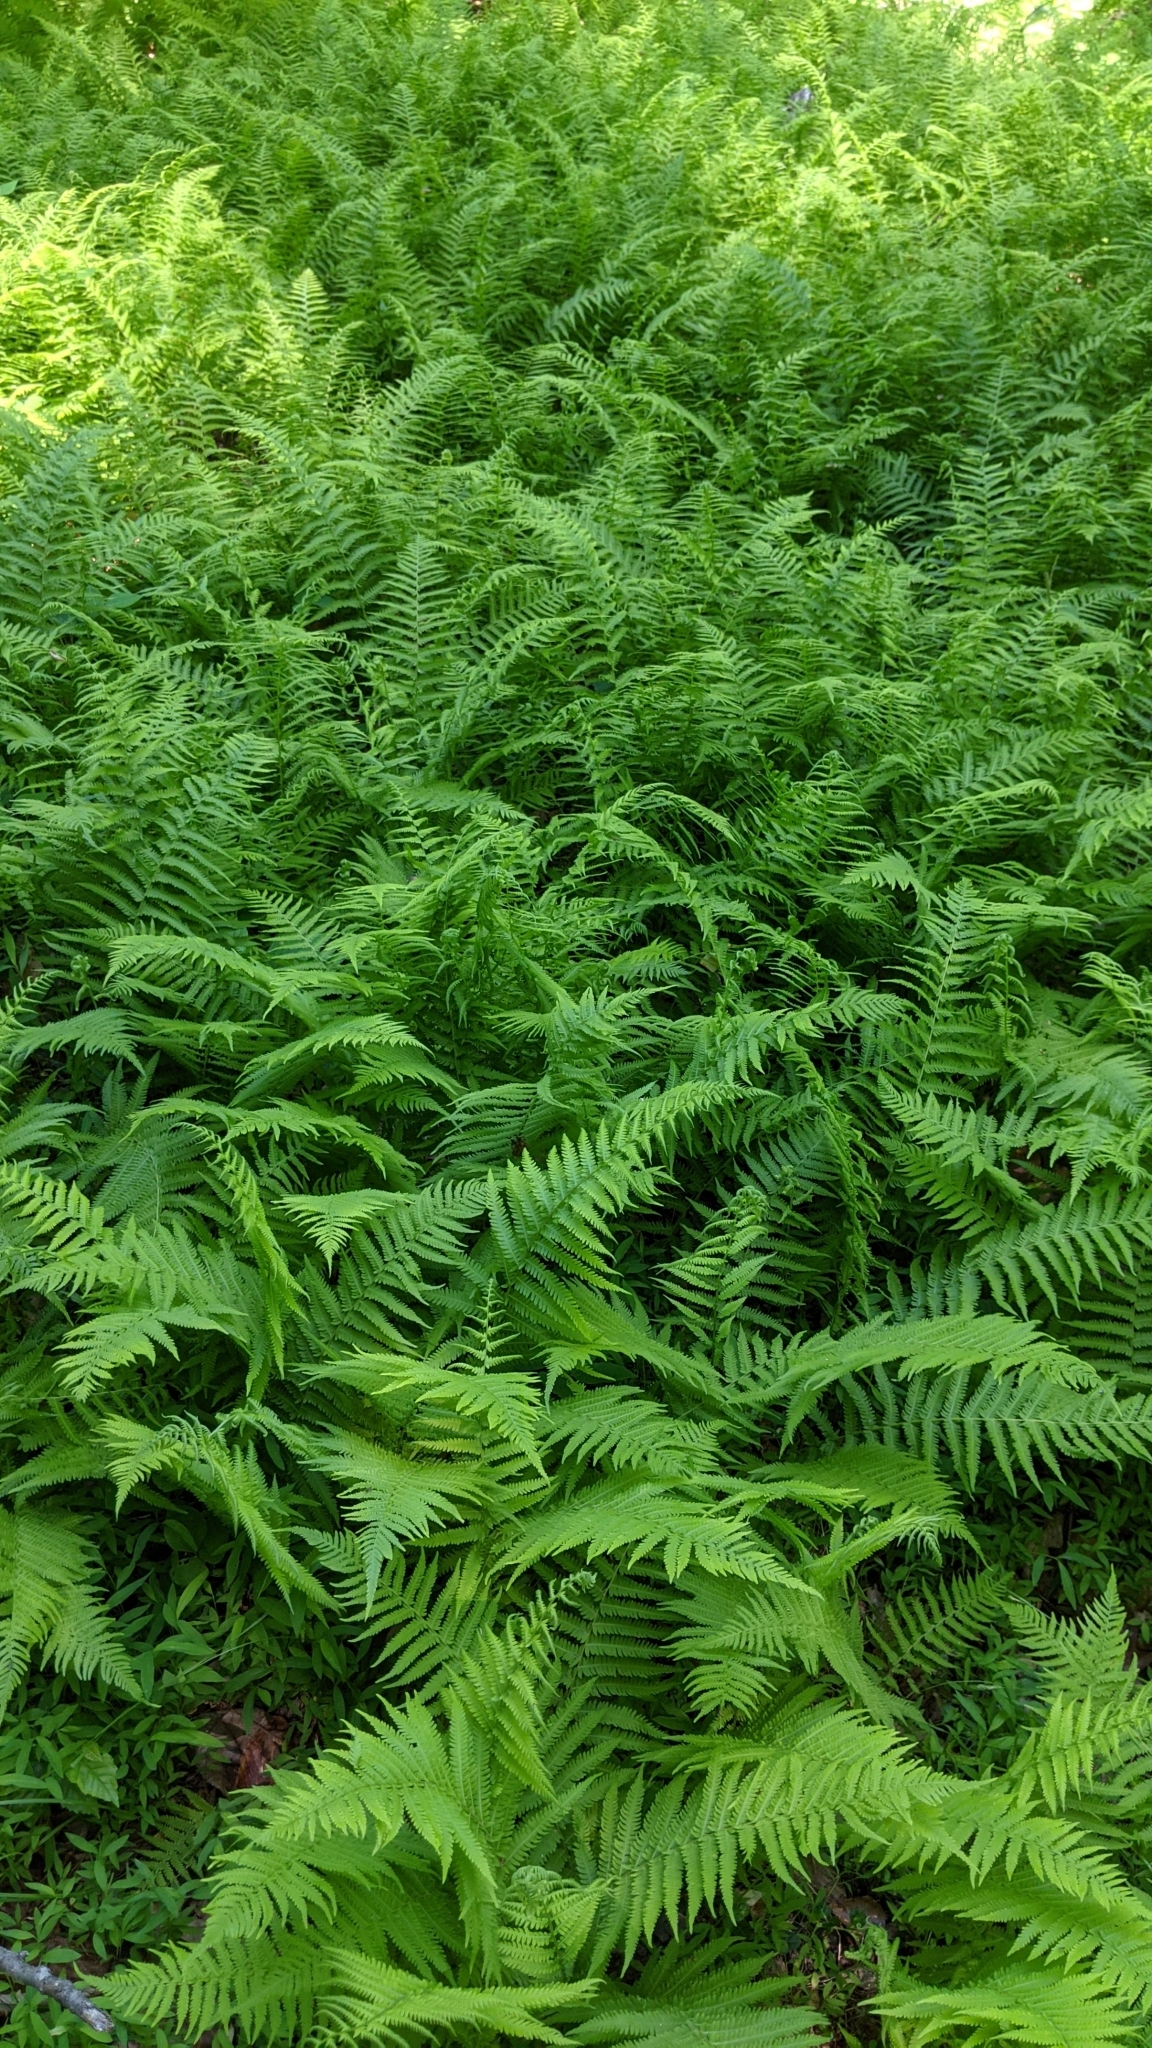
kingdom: Plantae
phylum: Tracheophyta
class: Polypodiopsida
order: Polypodiales
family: Thelypteridaceae
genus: Amauropelta
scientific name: Amauropelta noveboracensis
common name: New york fern
